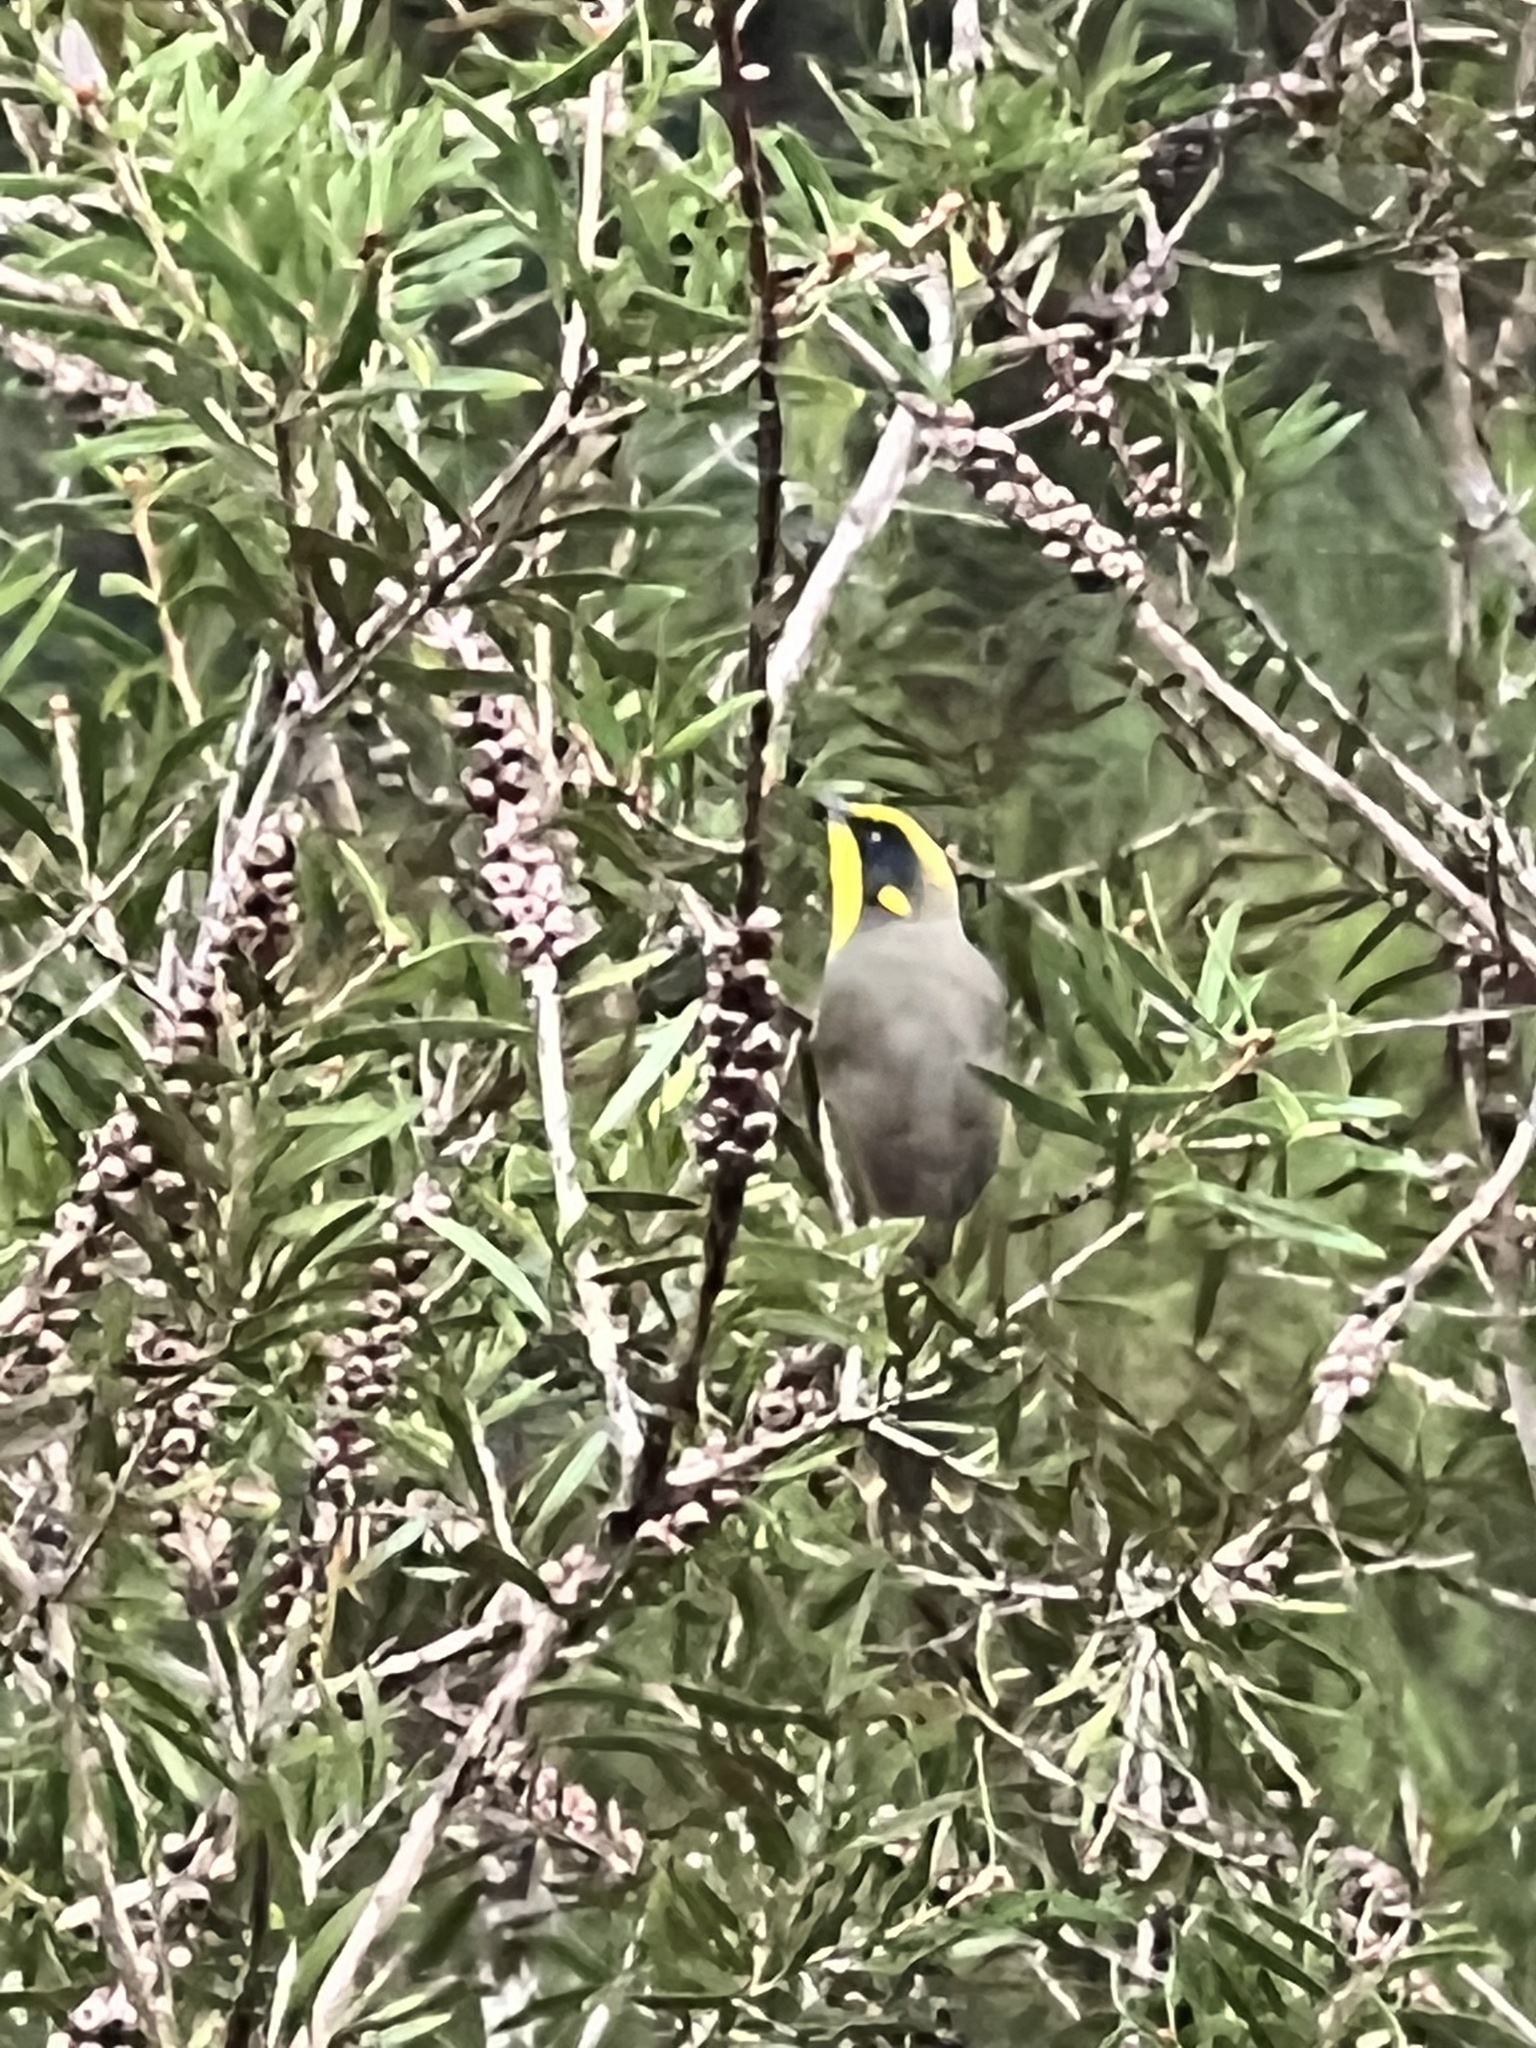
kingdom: Animalia
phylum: Chordata
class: Aves
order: Passeriformes
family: Meliphagidae
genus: Lichenostomus
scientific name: Lichenostomus melanops
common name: Yellow-tufted honeyeater
